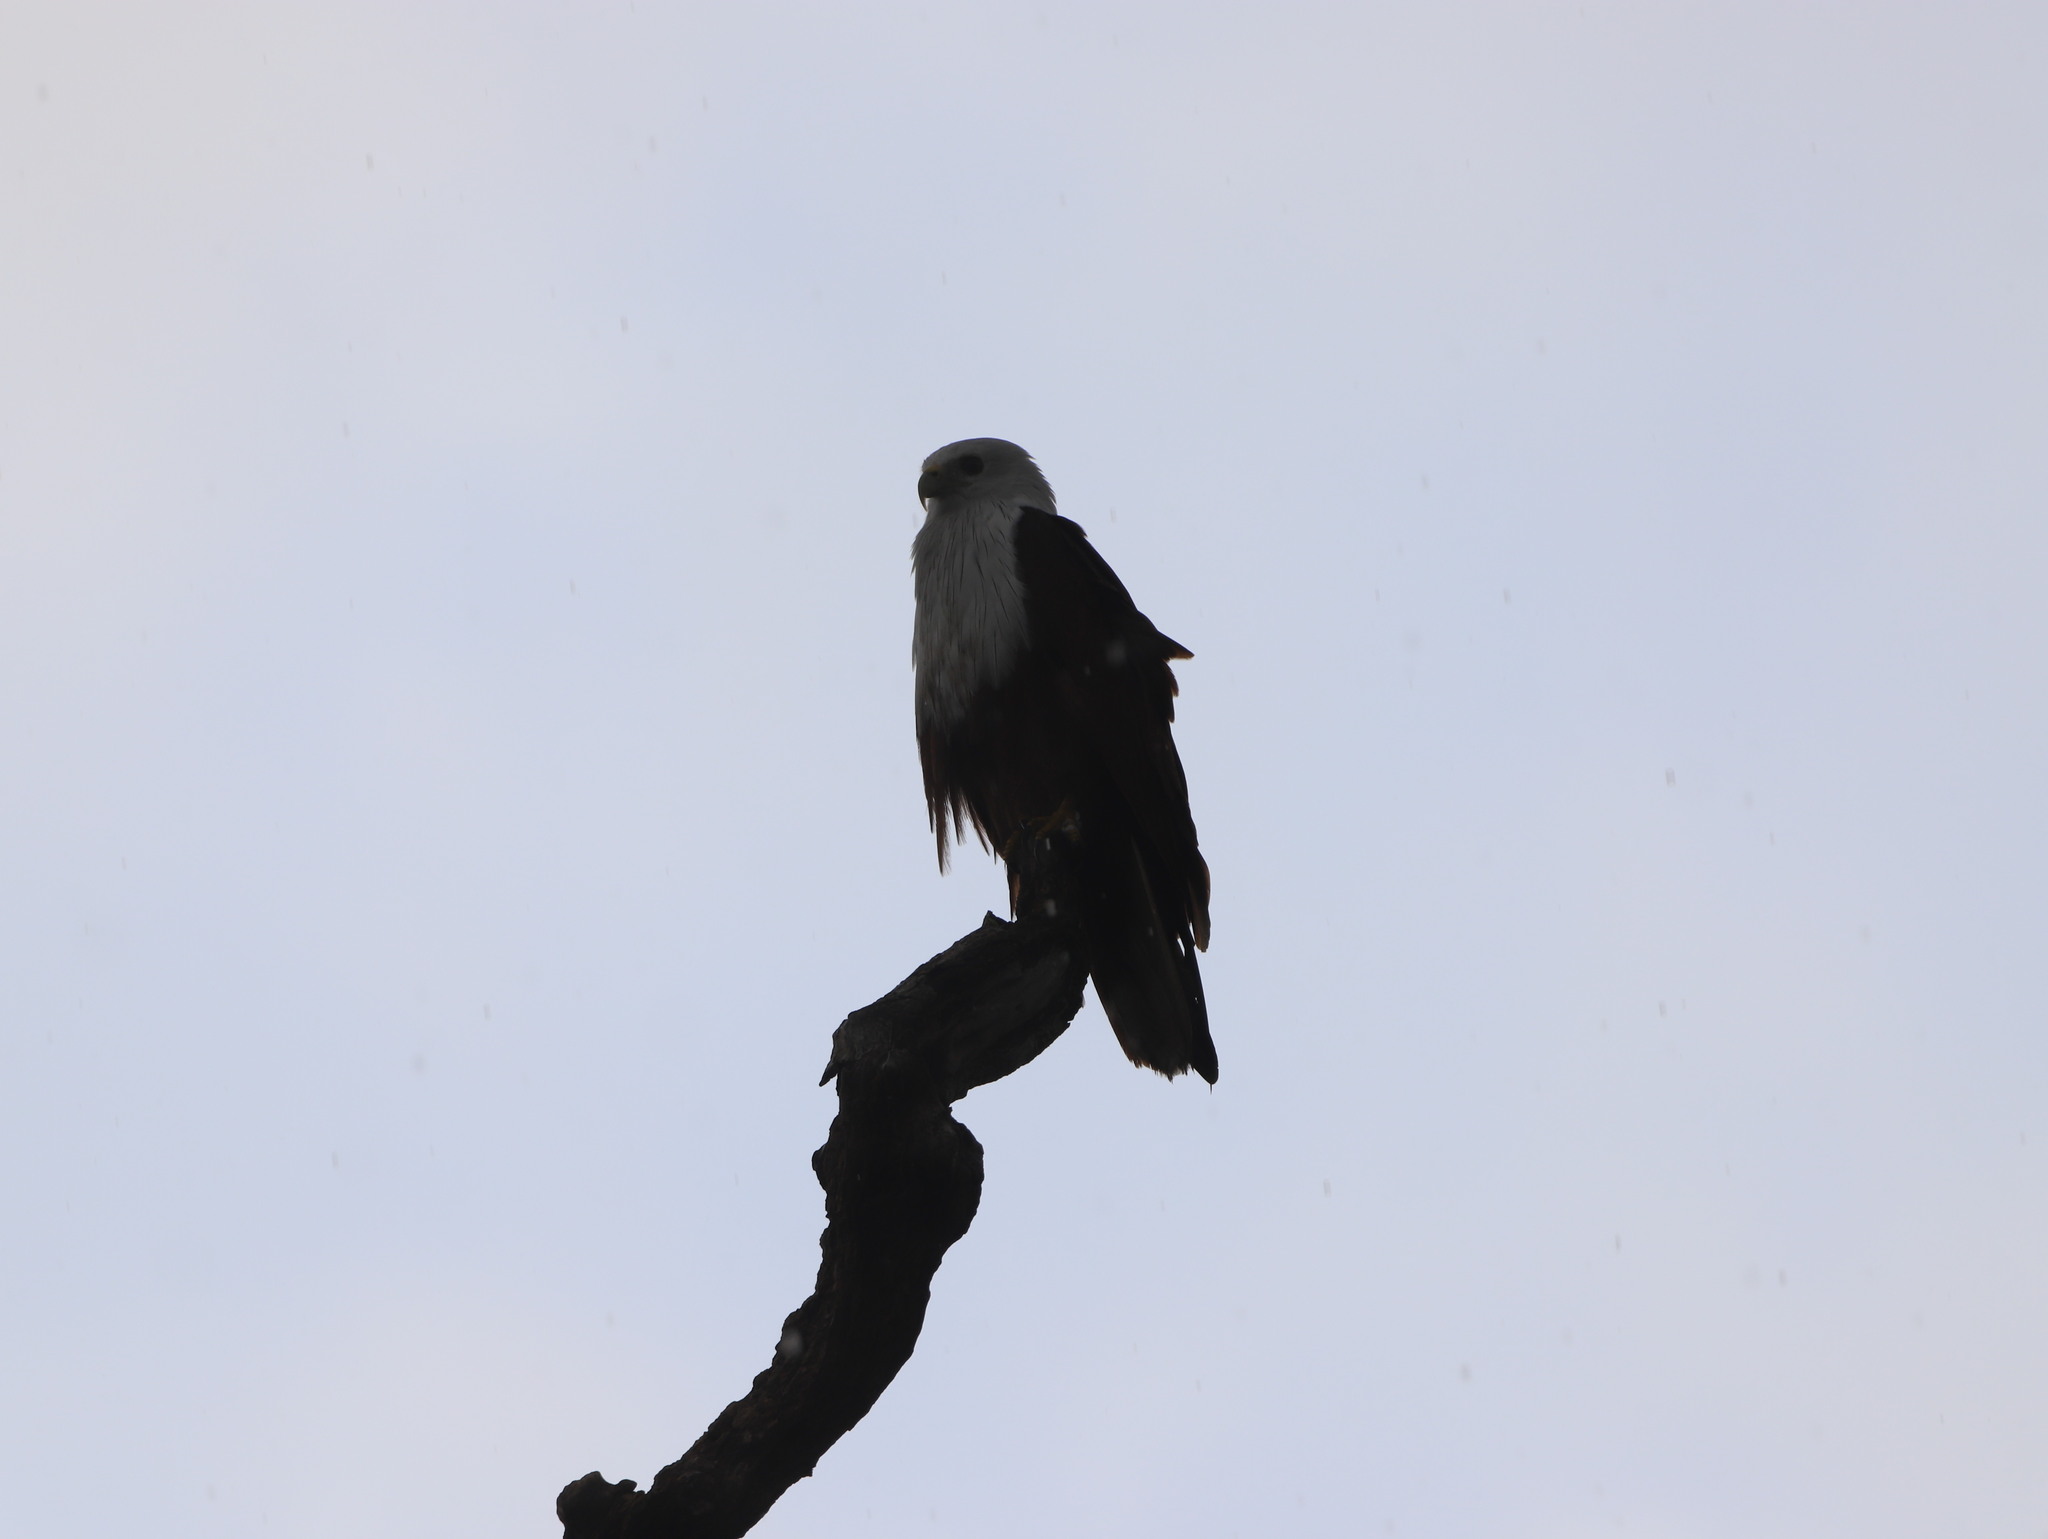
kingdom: Animalia
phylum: Chordata
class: Aves
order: Accipitriformes
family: Accipitridae
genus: Haliastur
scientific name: Haliastur indus
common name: Brahminy kite
